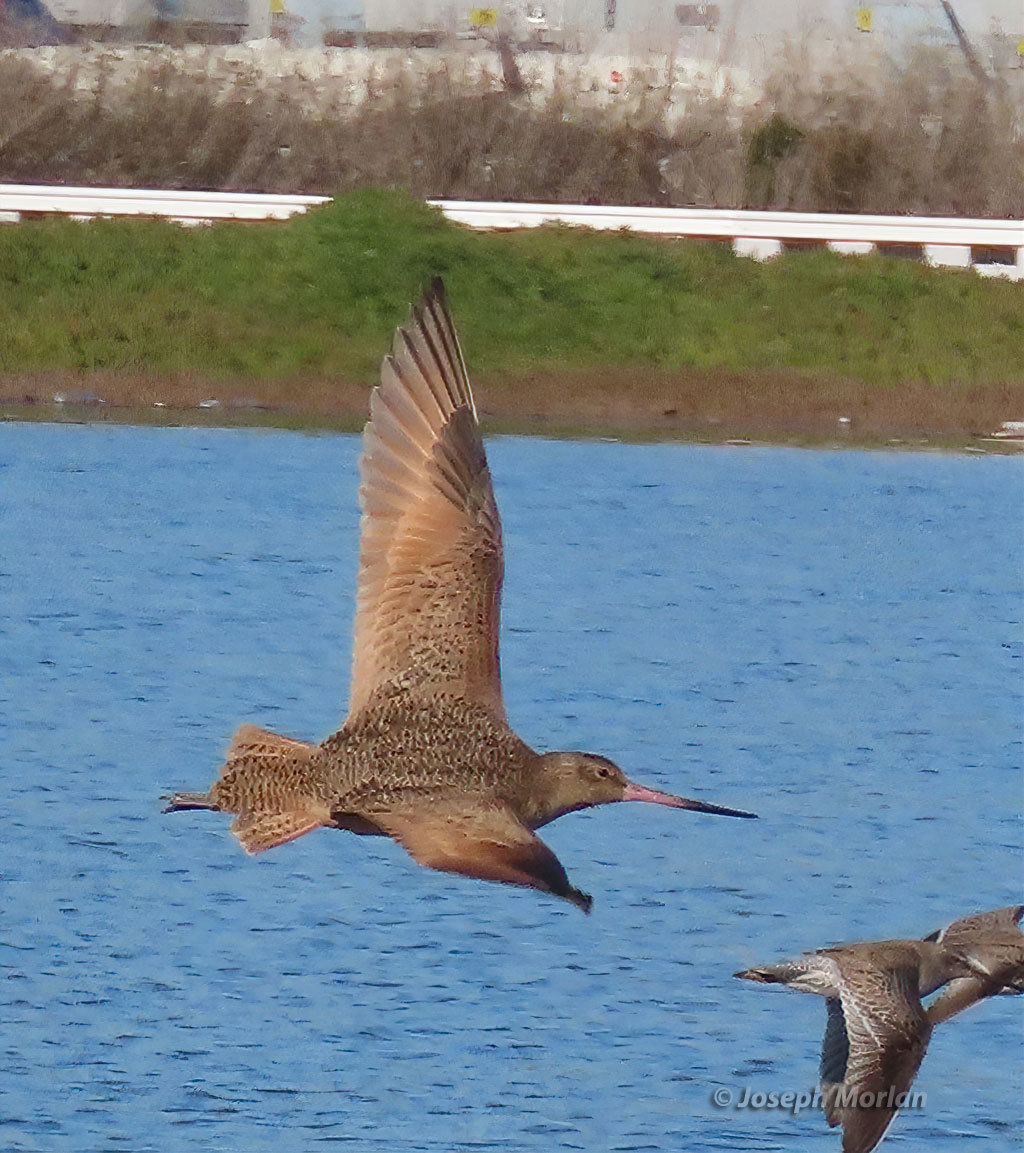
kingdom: Animalia
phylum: Chordata
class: Aves
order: Charadriiformes
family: Scolopacidae
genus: Limosa
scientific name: Limosa fedoa
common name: Marbled godwit
